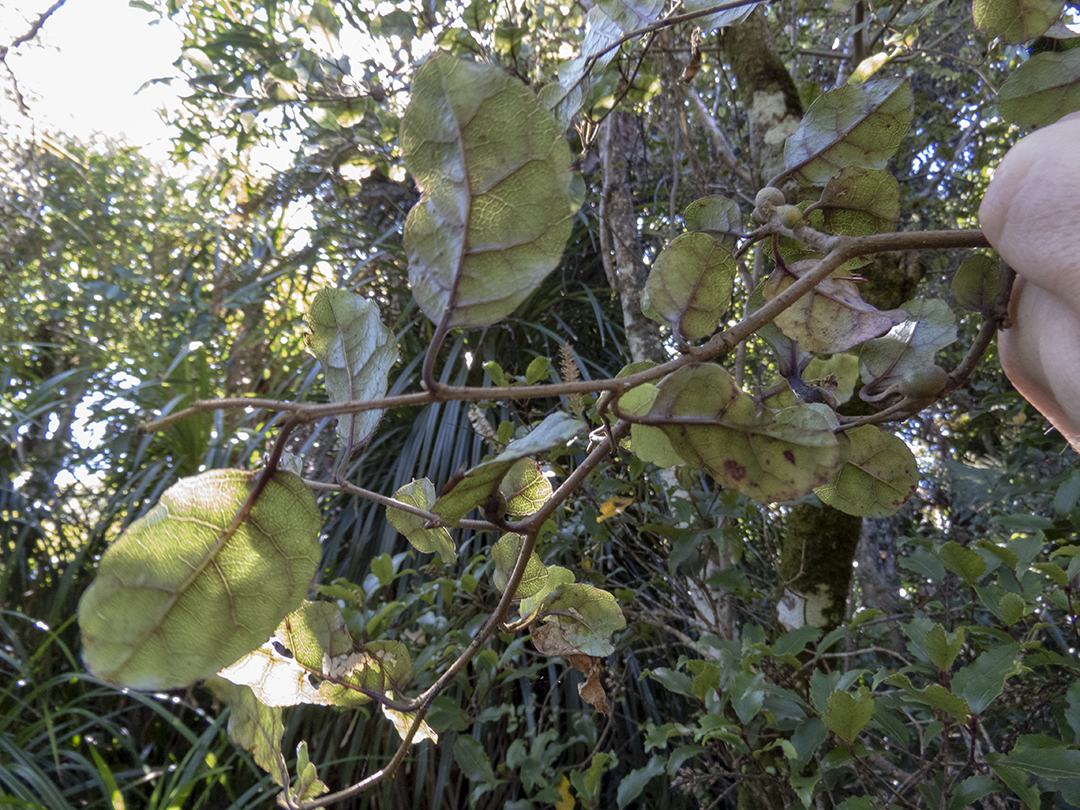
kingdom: Plantae
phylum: Tracheophyta
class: Magnoliopsida
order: Asterales
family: Rousseaceae
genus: Carpodetus
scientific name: Carpodetus serratus
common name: White mapau
